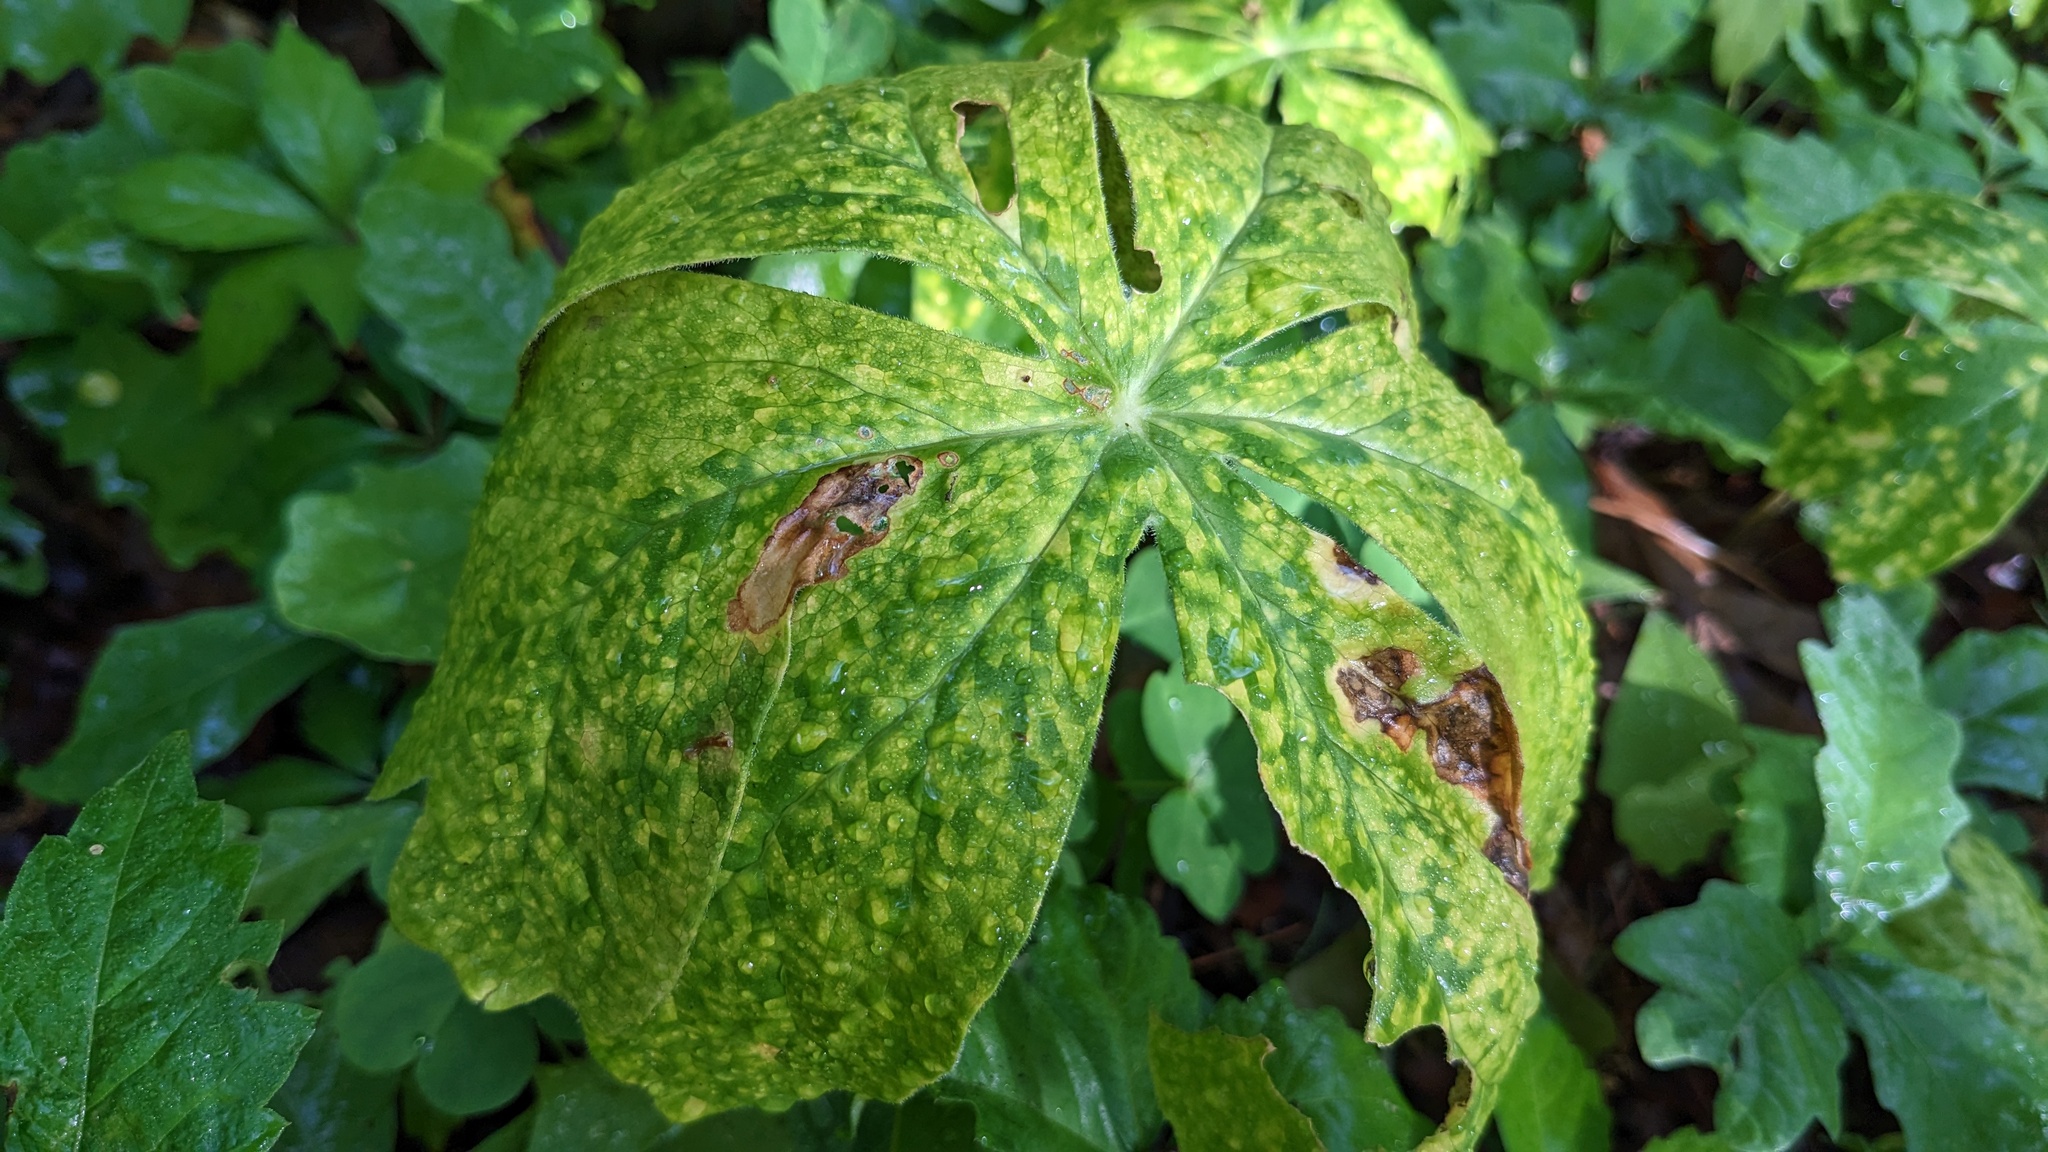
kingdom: Fungi
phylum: Basidiomycota
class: Pucciniomycetes
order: Pucciniales
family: Pucciniaceae
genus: Puccinia
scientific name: Puccinia podophylli
